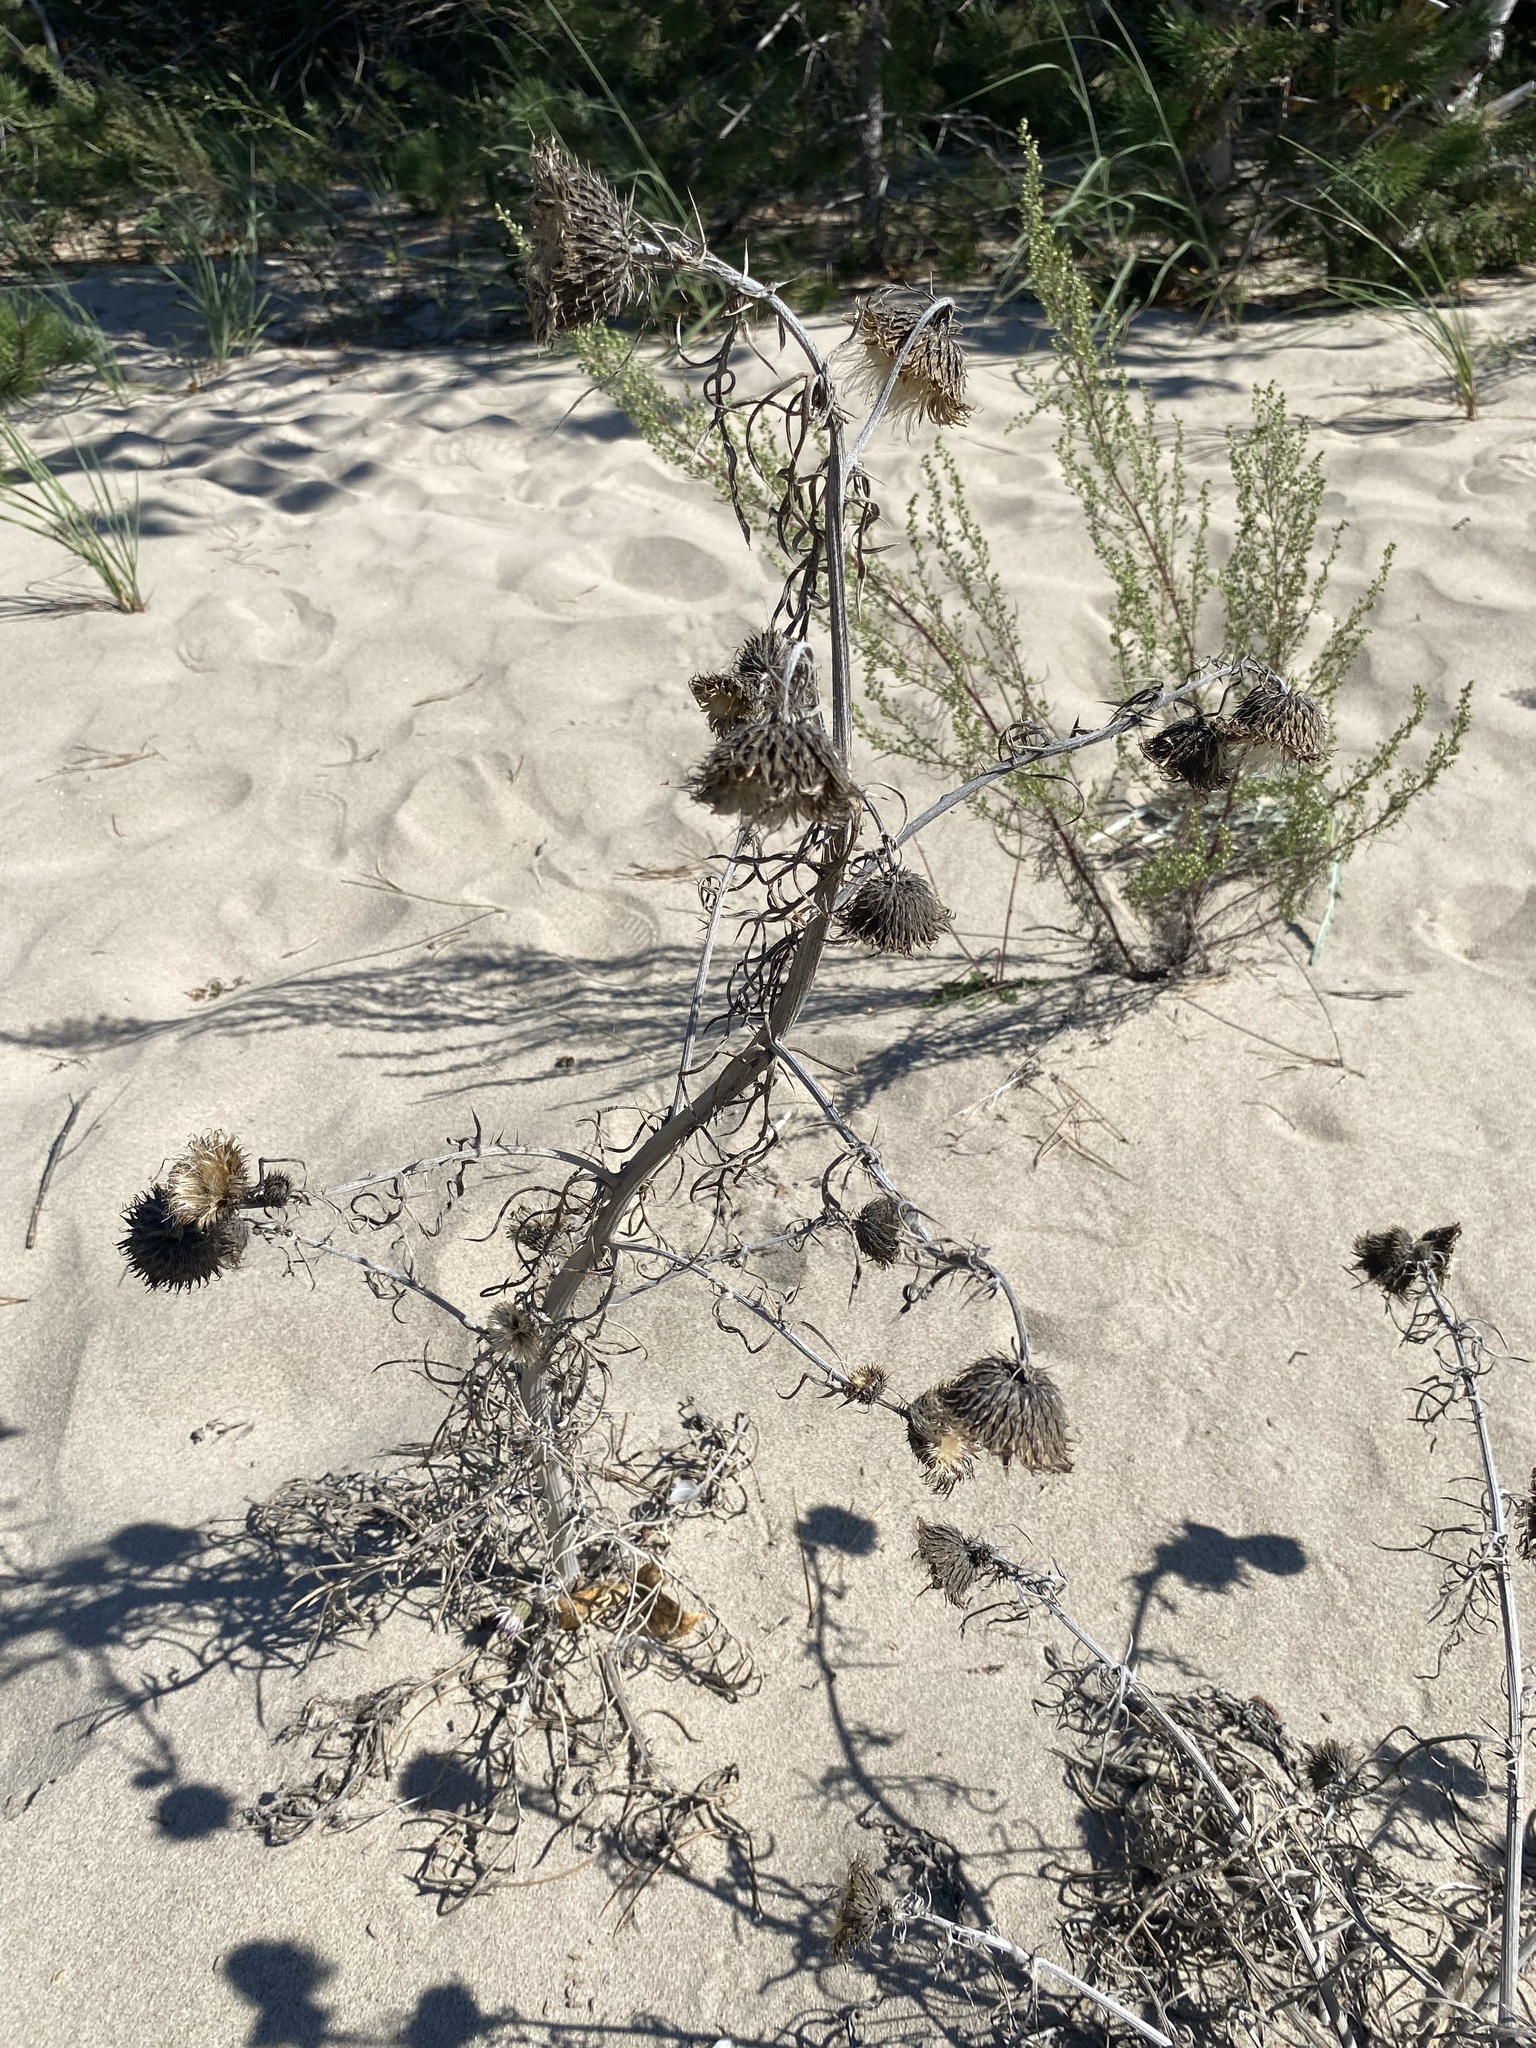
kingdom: Plantae
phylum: Tracheophyta
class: Magnoliopsida
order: Asterales
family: Asteraceae
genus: Cirsium
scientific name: Cirsium pitcheri
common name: Dune thistle
